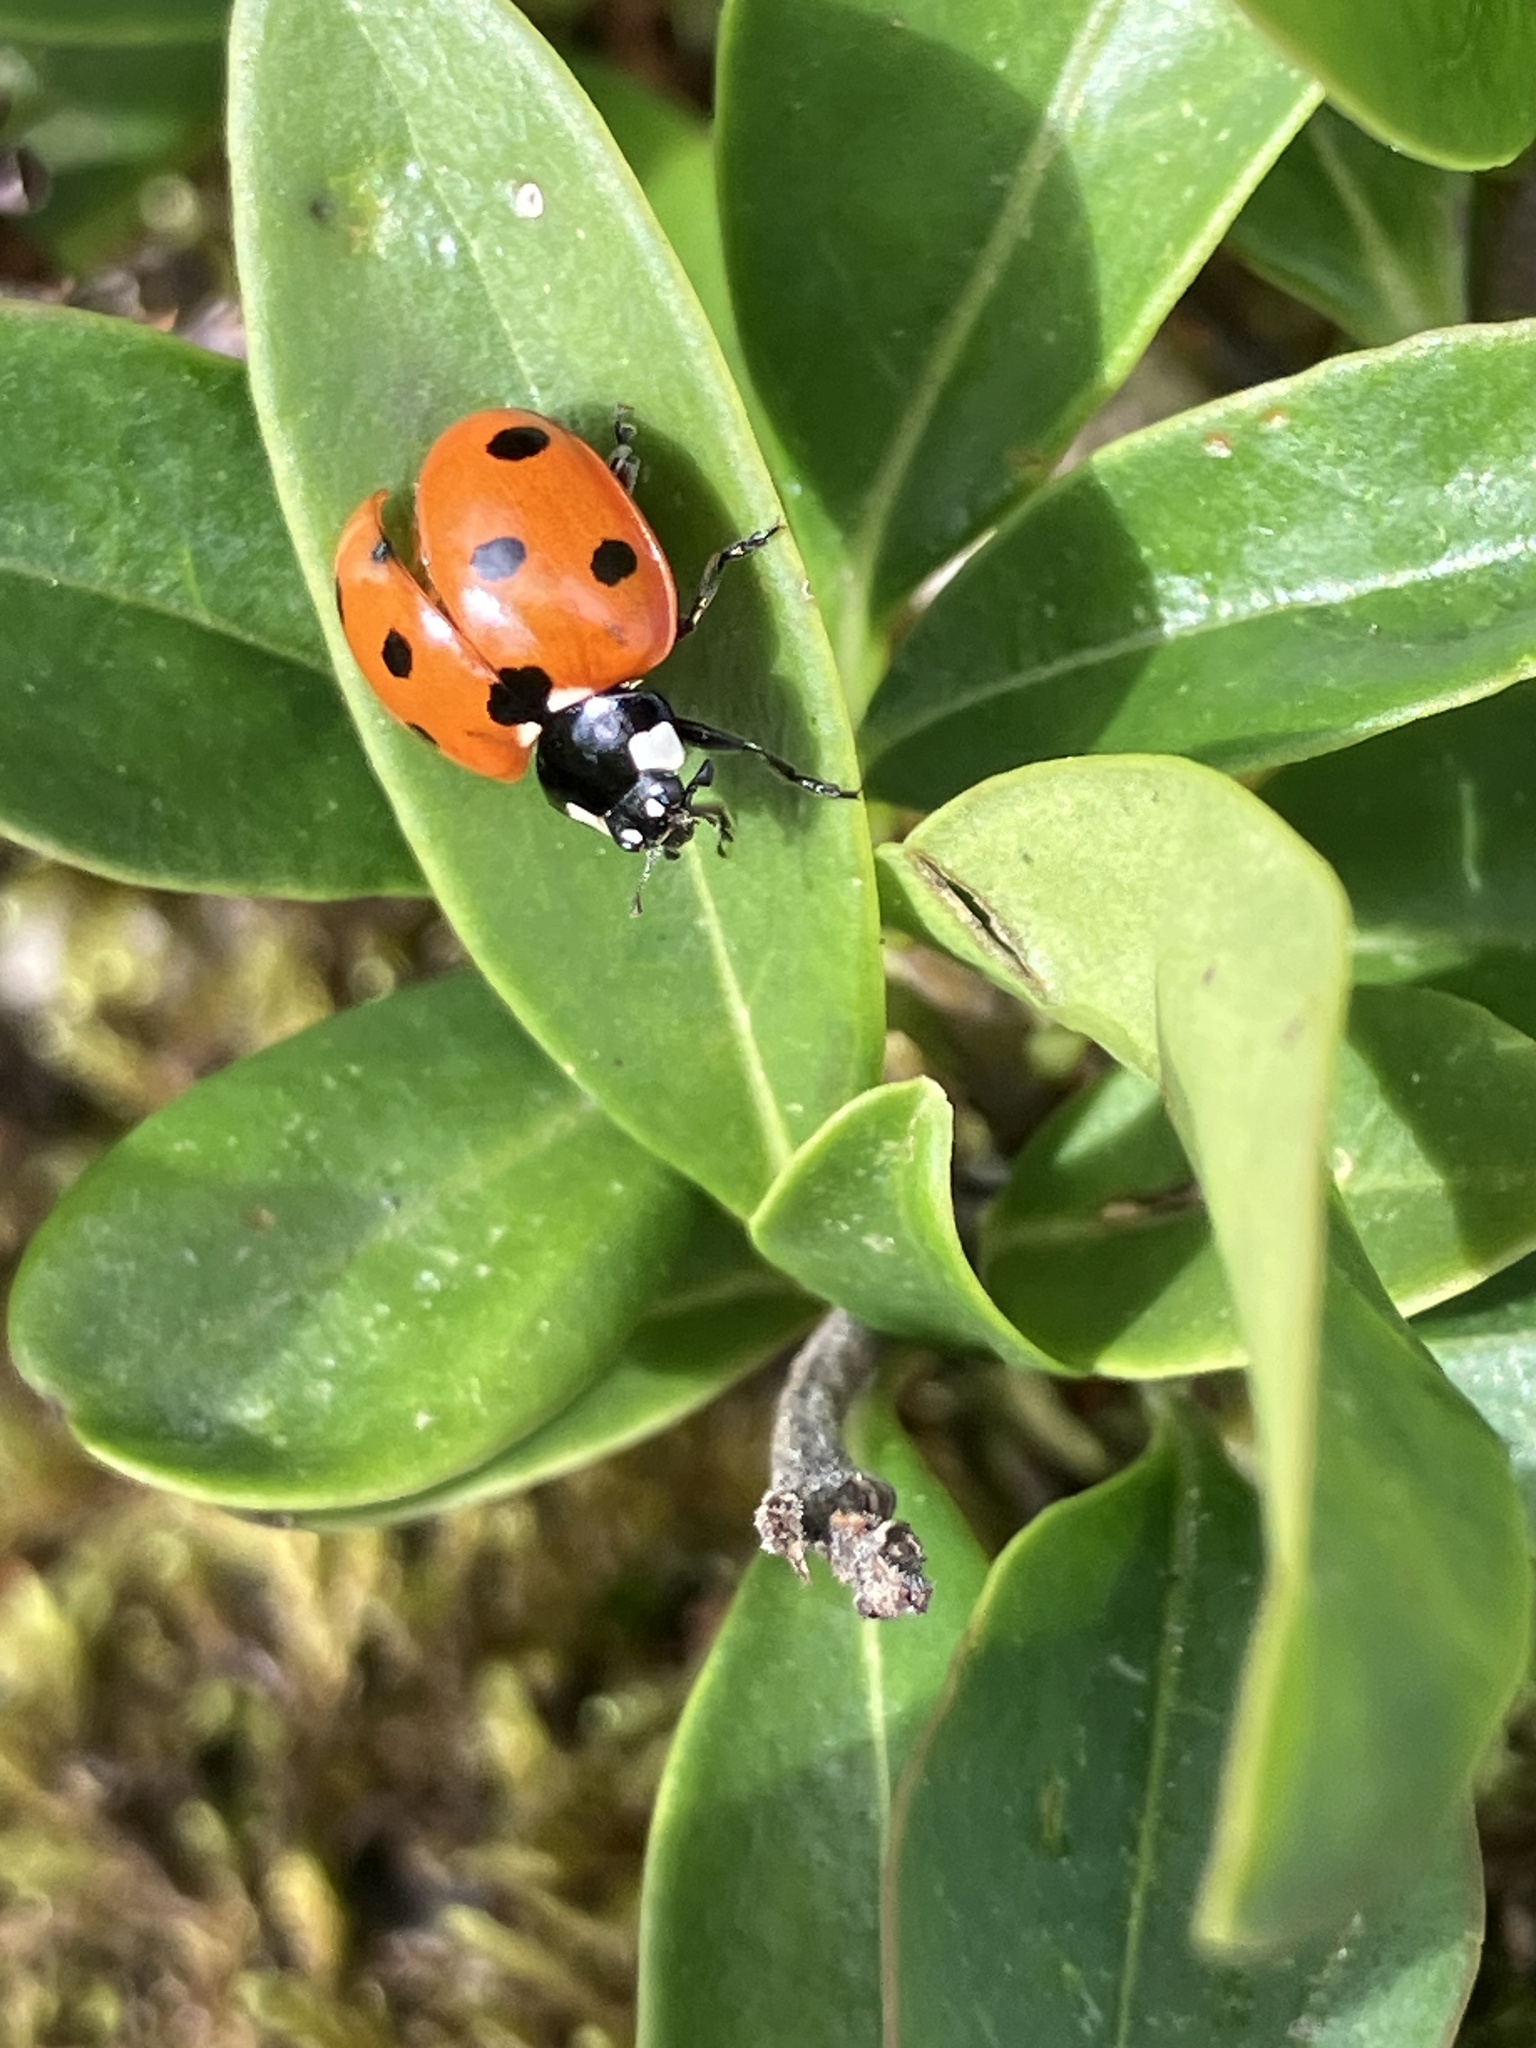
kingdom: Animalia
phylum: Arthropoda
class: Insecta
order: Coleoptera
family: Coccinellidae
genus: Coccinella
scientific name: Coccinella septempunctata
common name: Sevenspotted lady beetle
